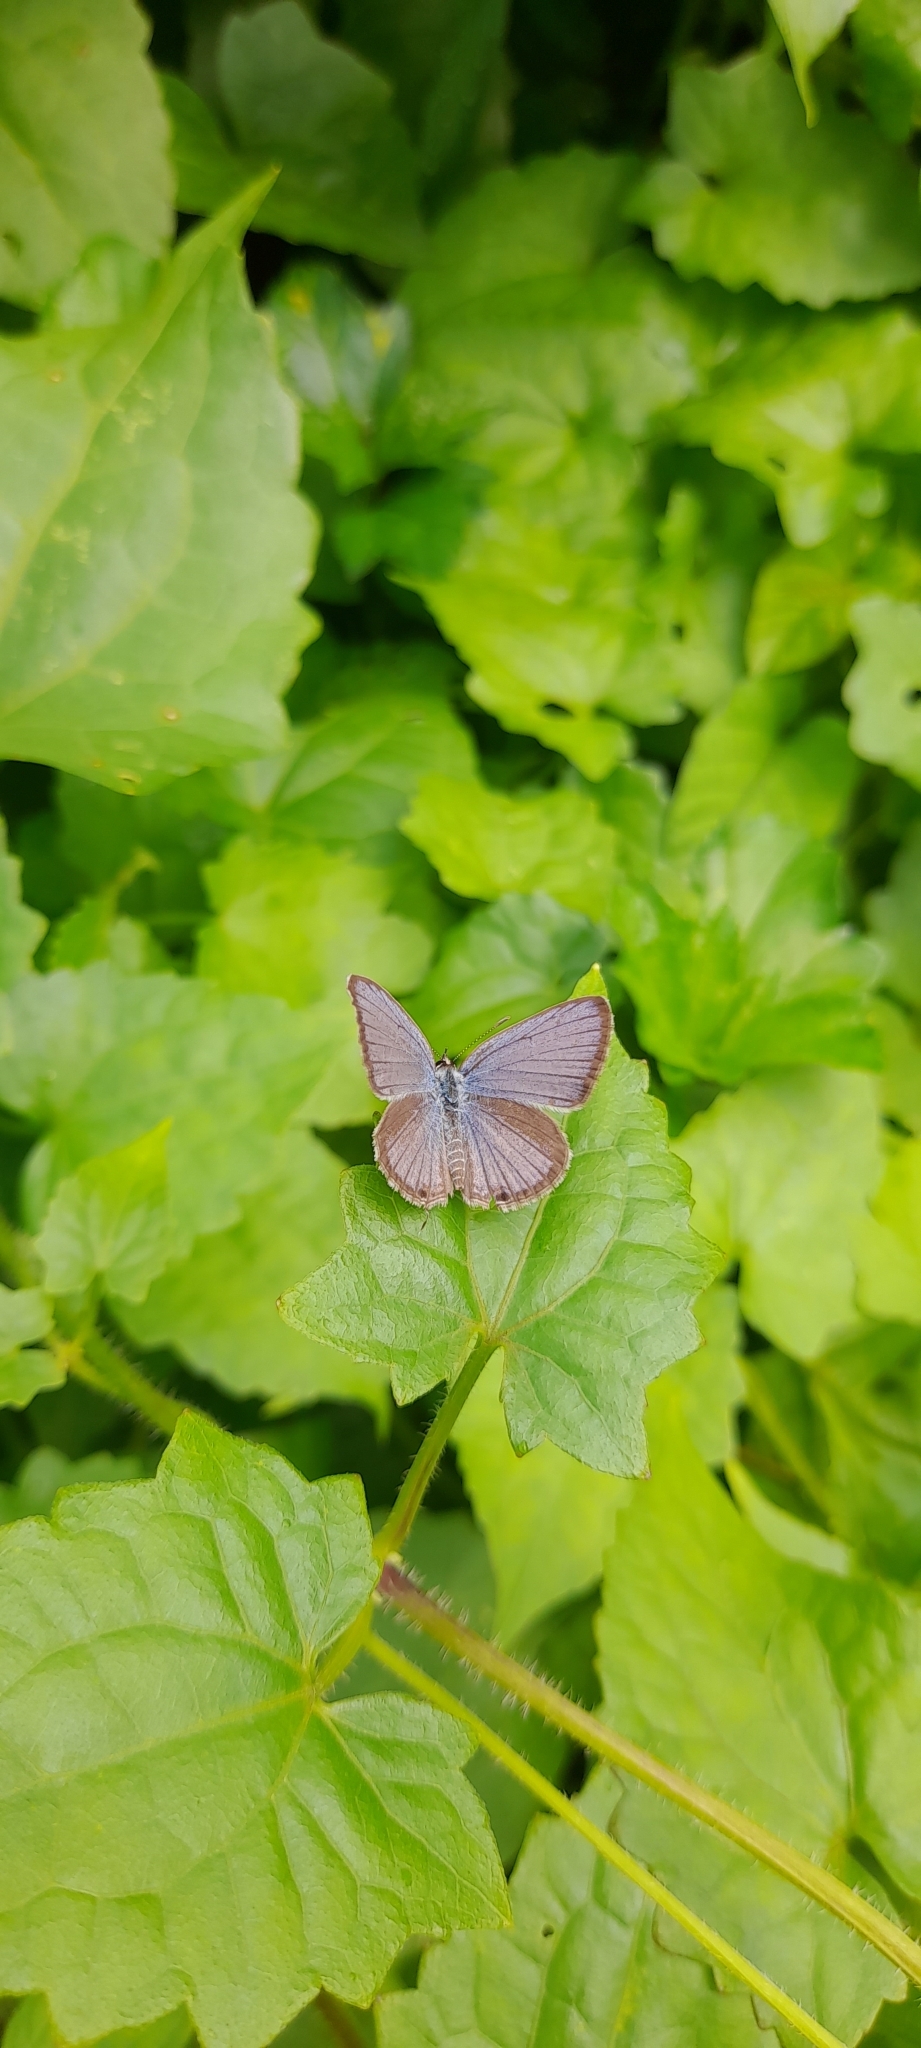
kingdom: Animalia
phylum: Arthropoda
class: Insecta
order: Lepidoptera
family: Lycaenidae
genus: Luthrodes
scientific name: Luthrodes pandava
